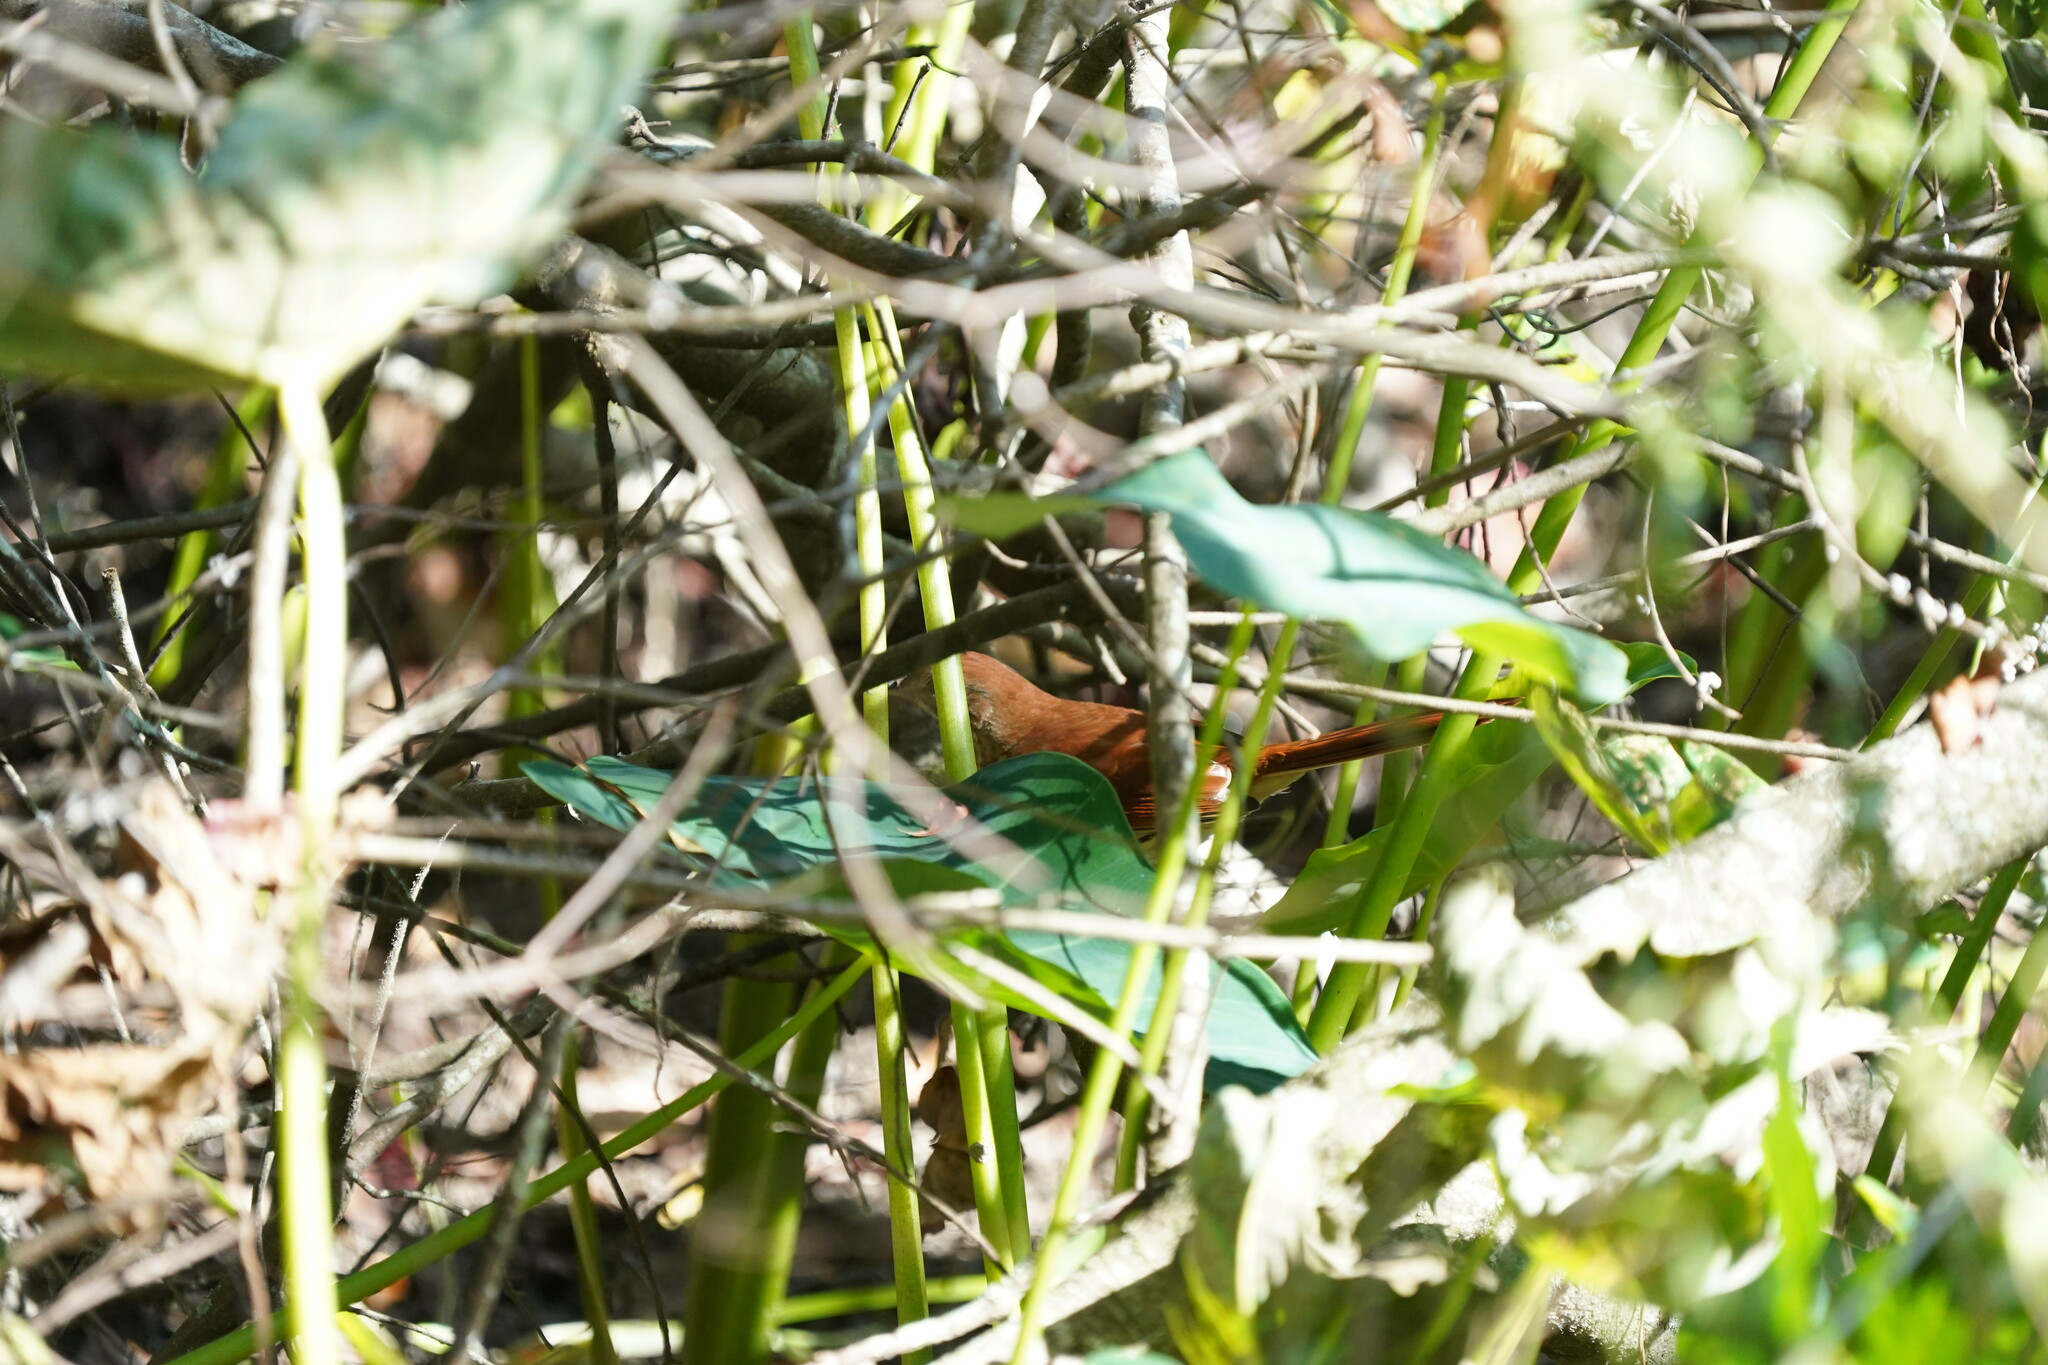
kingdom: Animalia
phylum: Chordata
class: Aves
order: Passeriformes
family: Mimidae
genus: Toxostoma
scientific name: Toxostoma rufum
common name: Brown thrasher
